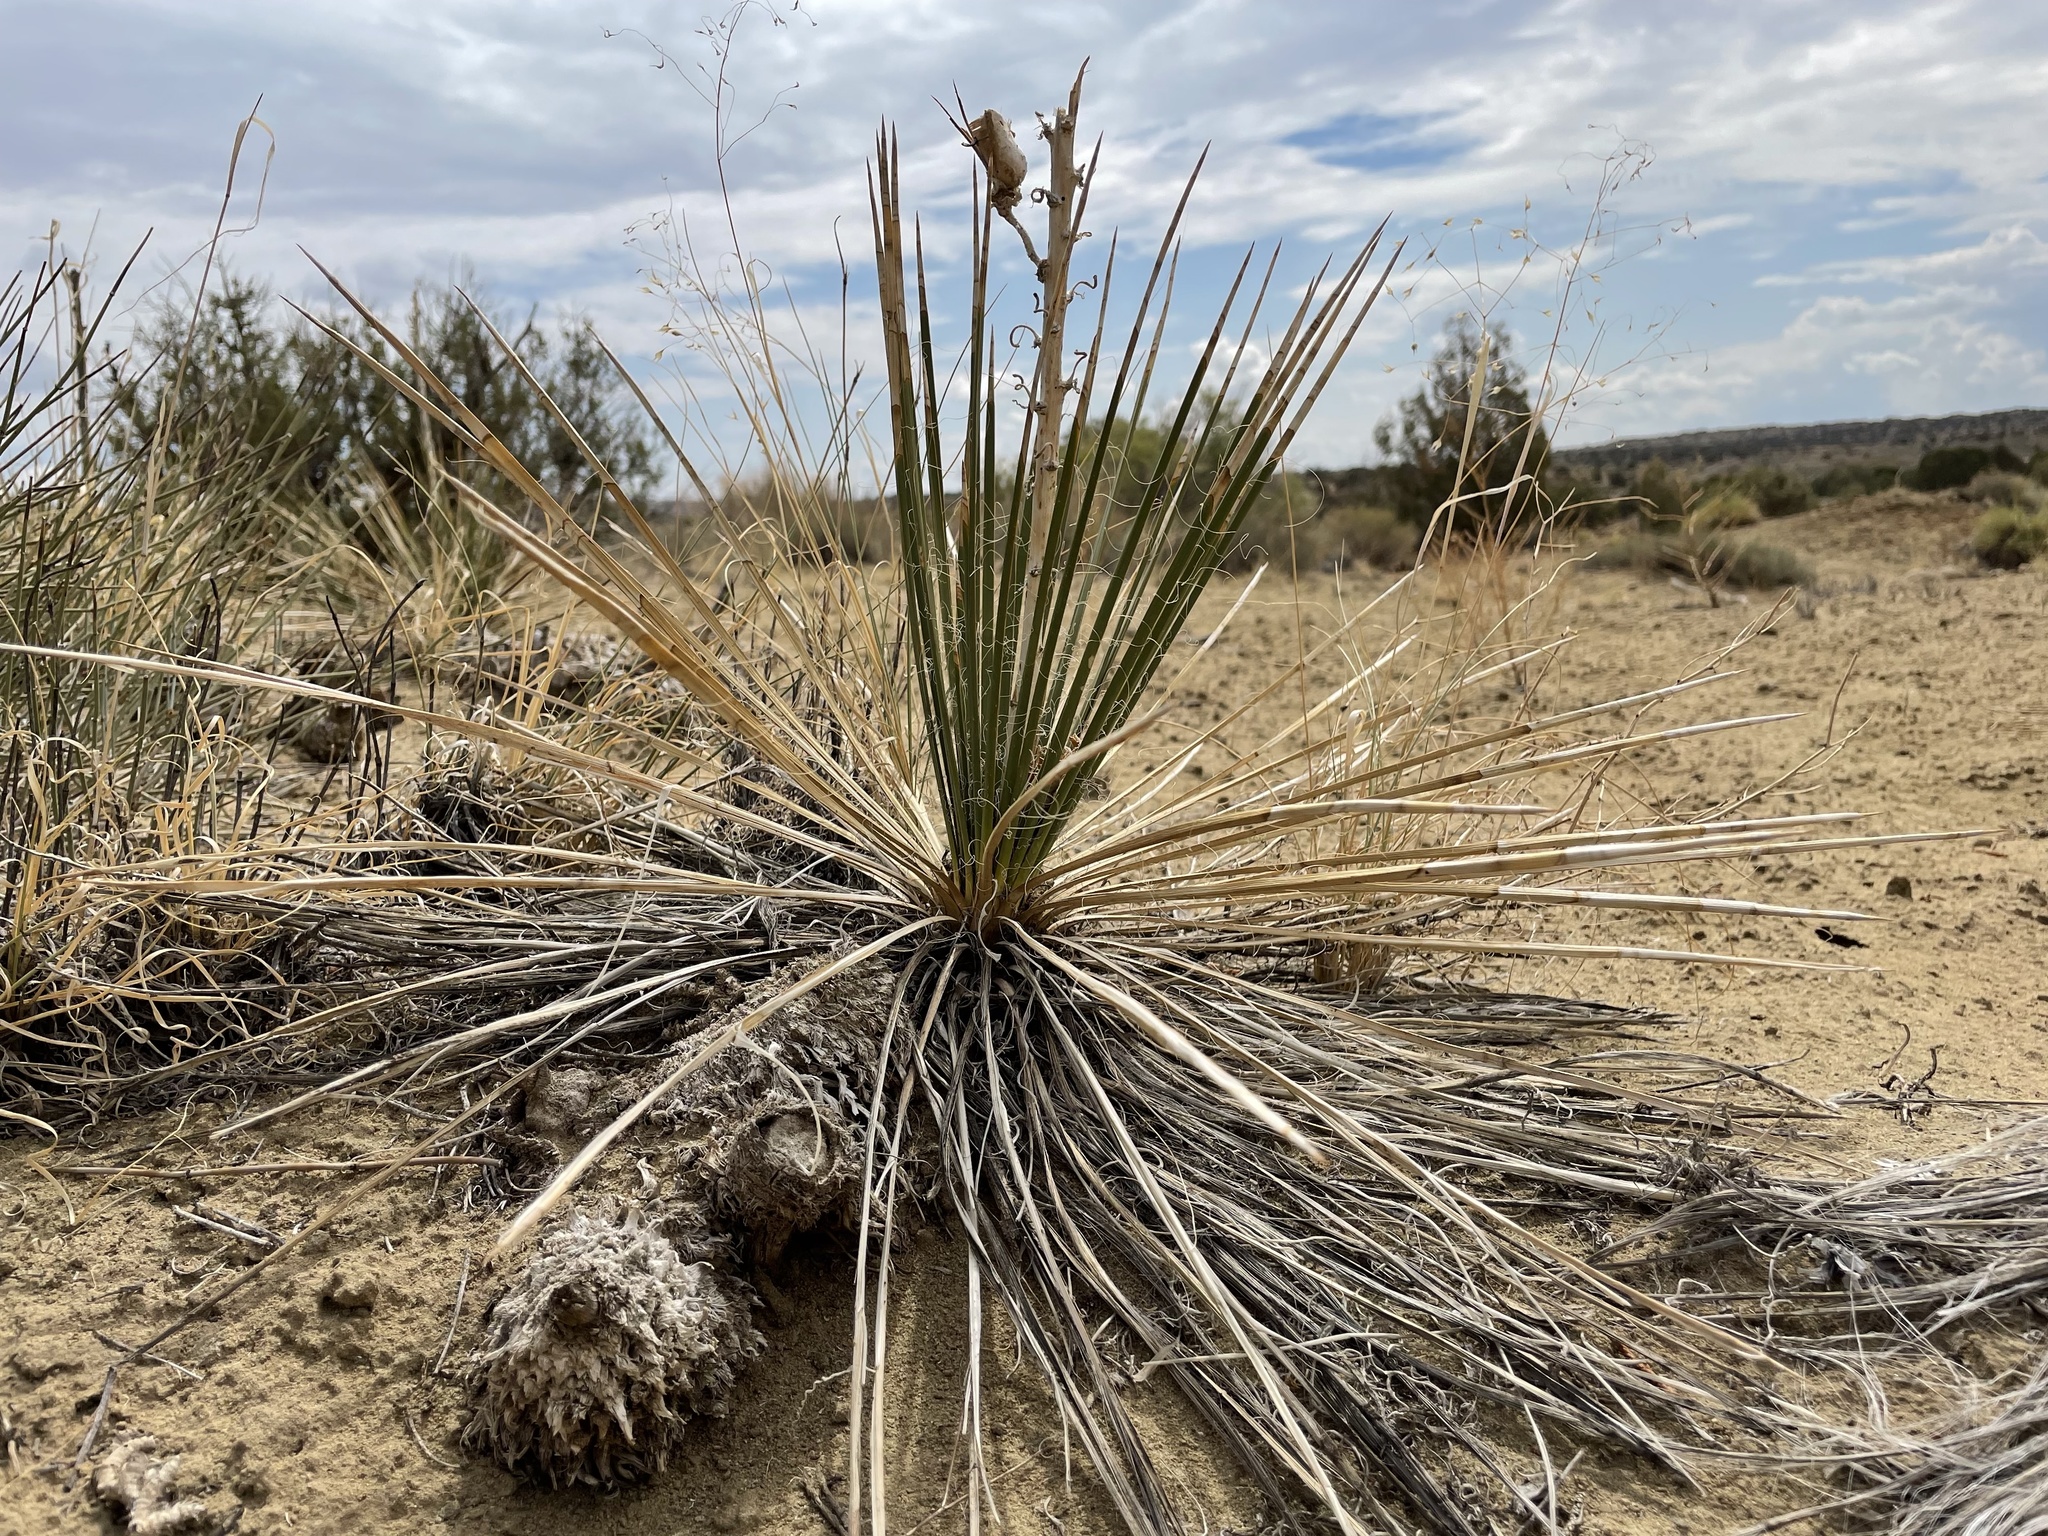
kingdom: Plantae
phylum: Tracheophyta
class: Liliopsida
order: Asparagales
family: Asparagaceae
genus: Yucca
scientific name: Yucca baileyi
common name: Alpine yucca
